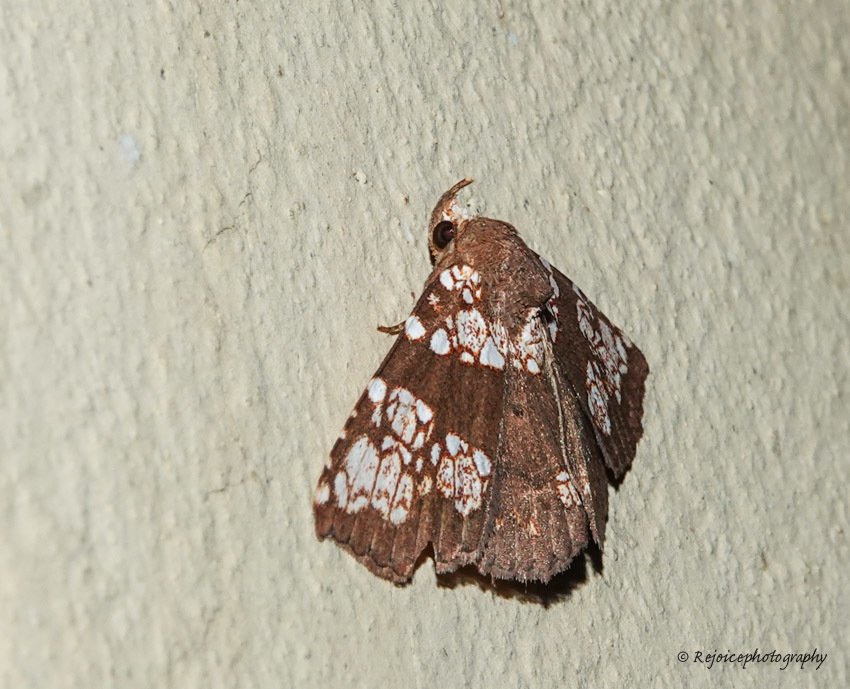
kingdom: Animalia
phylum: Arthropoda
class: Insecta
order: Lepidoptera
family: Erebidae
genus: Saroba
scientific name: Saroba pustulifera
